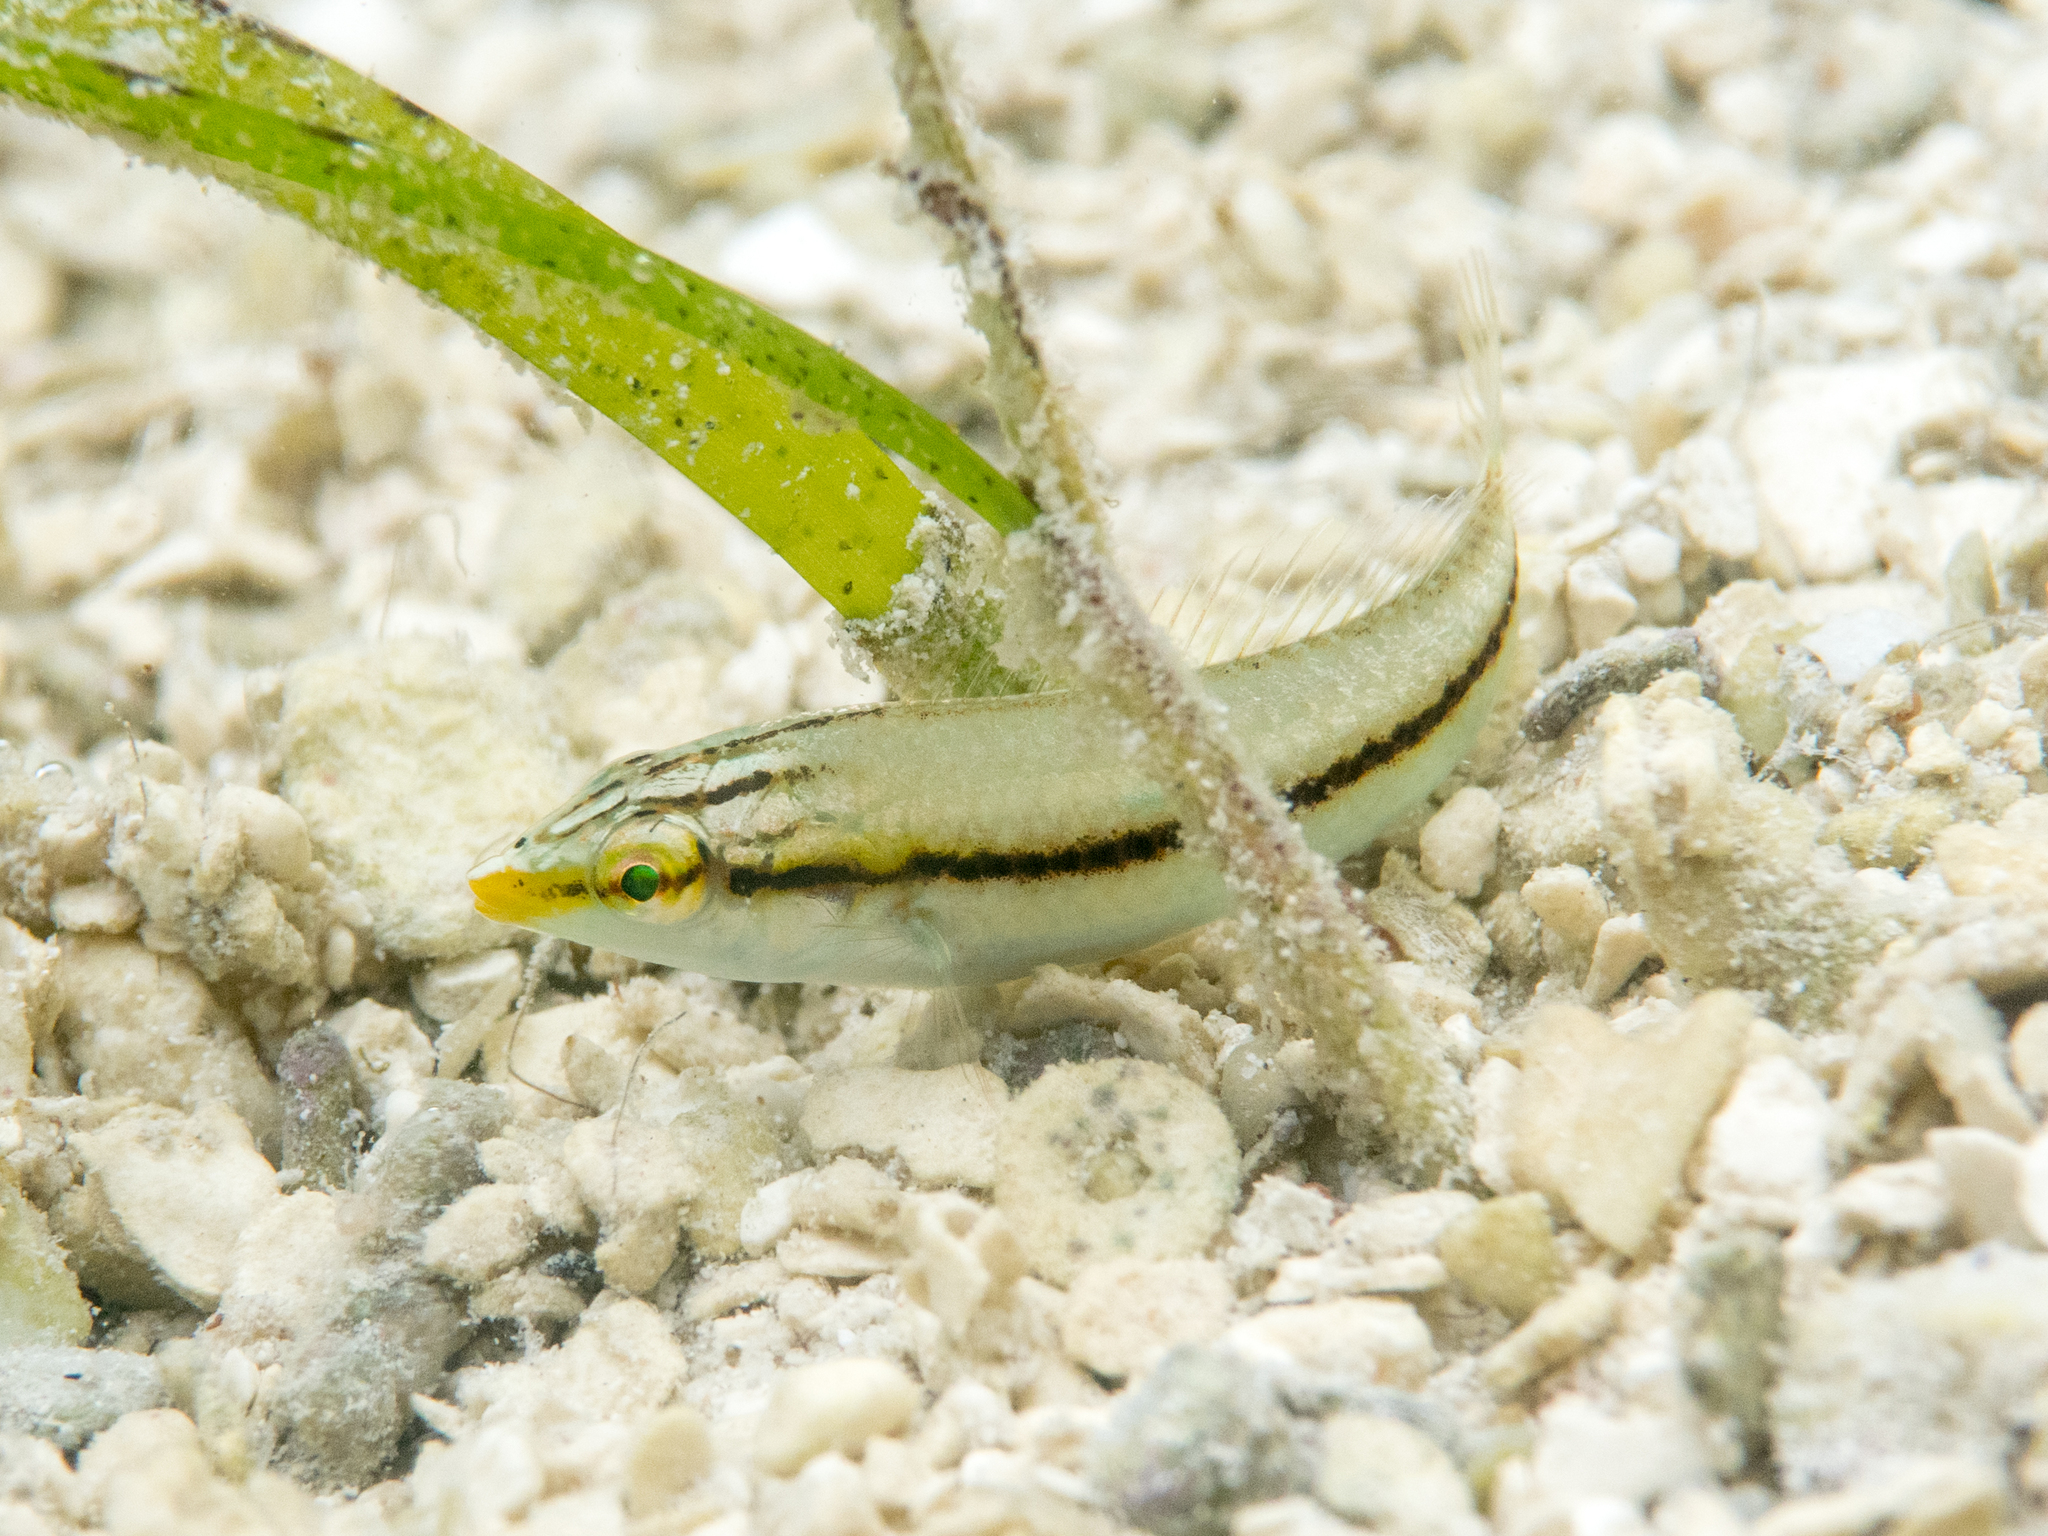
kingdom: Animalia
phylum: Chordata
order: Perciformes
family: Labridae
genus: Halichoeres
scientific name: Halichoeres scapularis
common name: Brownbanded wrasse
